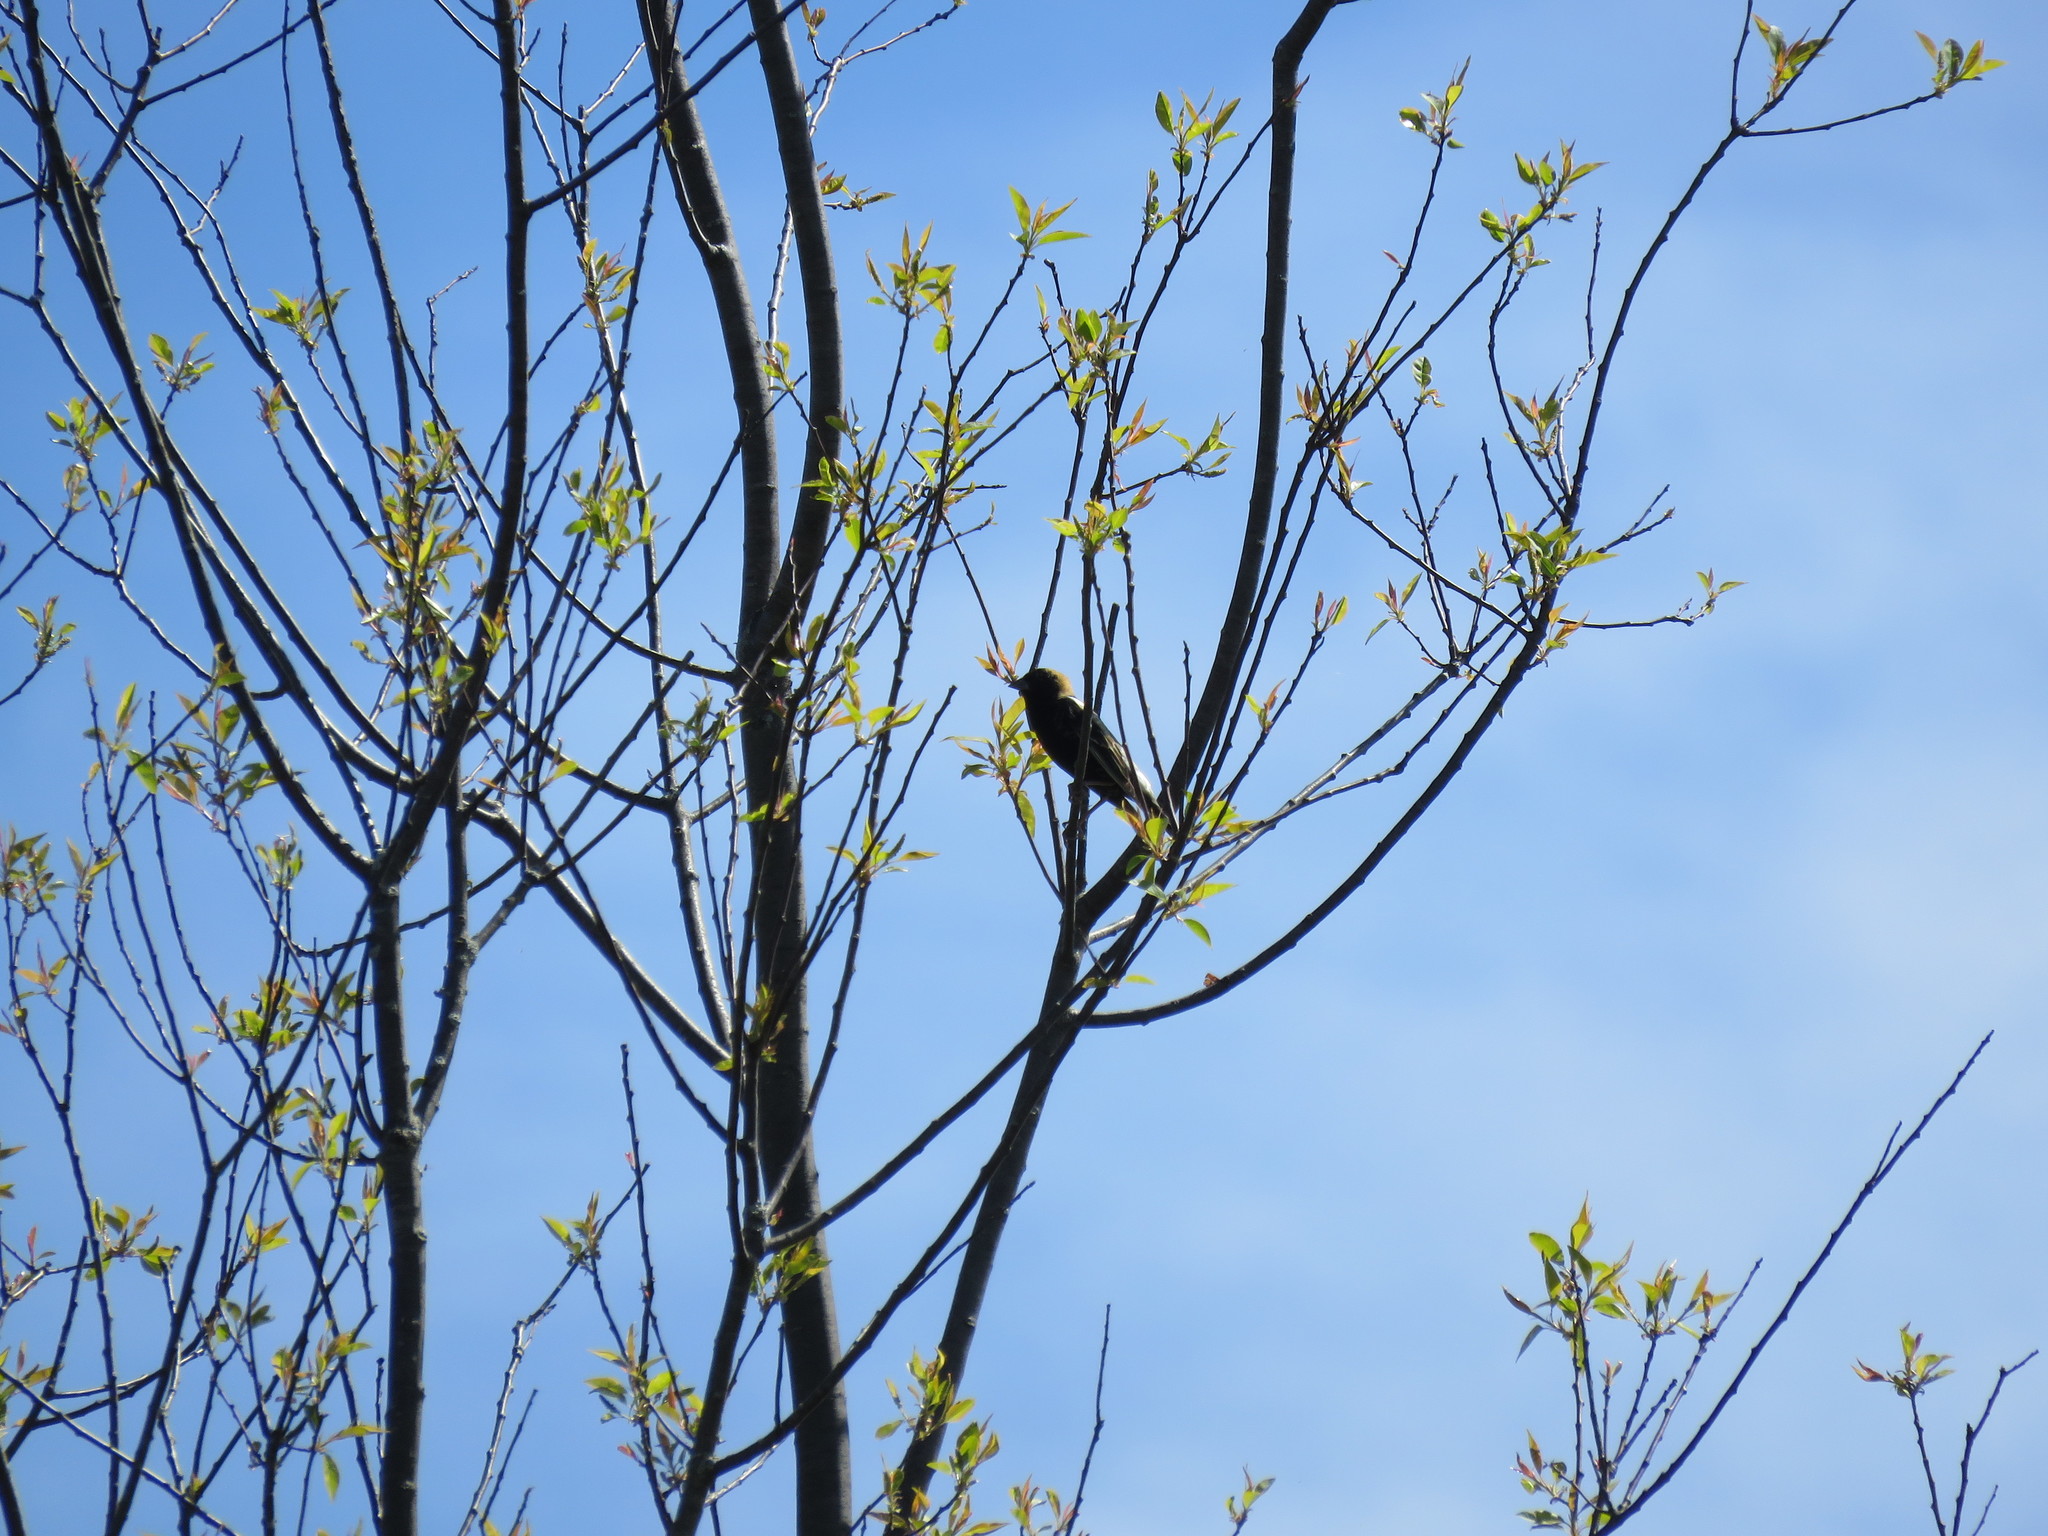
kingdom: Animalia
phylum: Chordata
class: Aves
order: Passeriformes
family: Icteridae
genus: Dolichonyx
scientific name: Dolichonyx oryzivorus
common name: Bobolink
